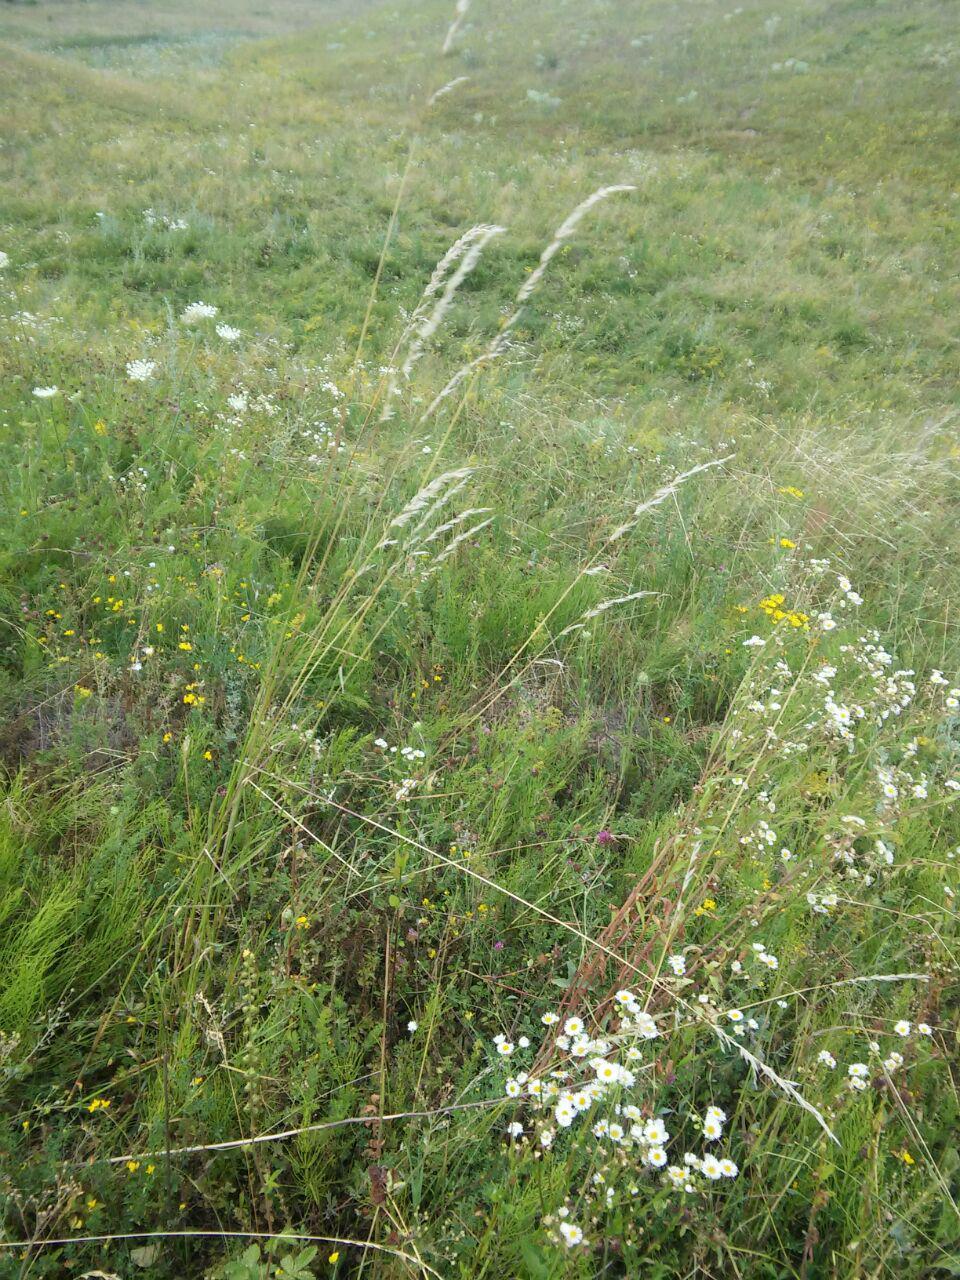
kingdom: Plantae
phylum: Tracheophyta
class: Liliopsida
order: Poales
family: Poaceae
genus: Arrhenatherum
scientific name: Arrhenatherum elatius
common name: Tall oatgrass
